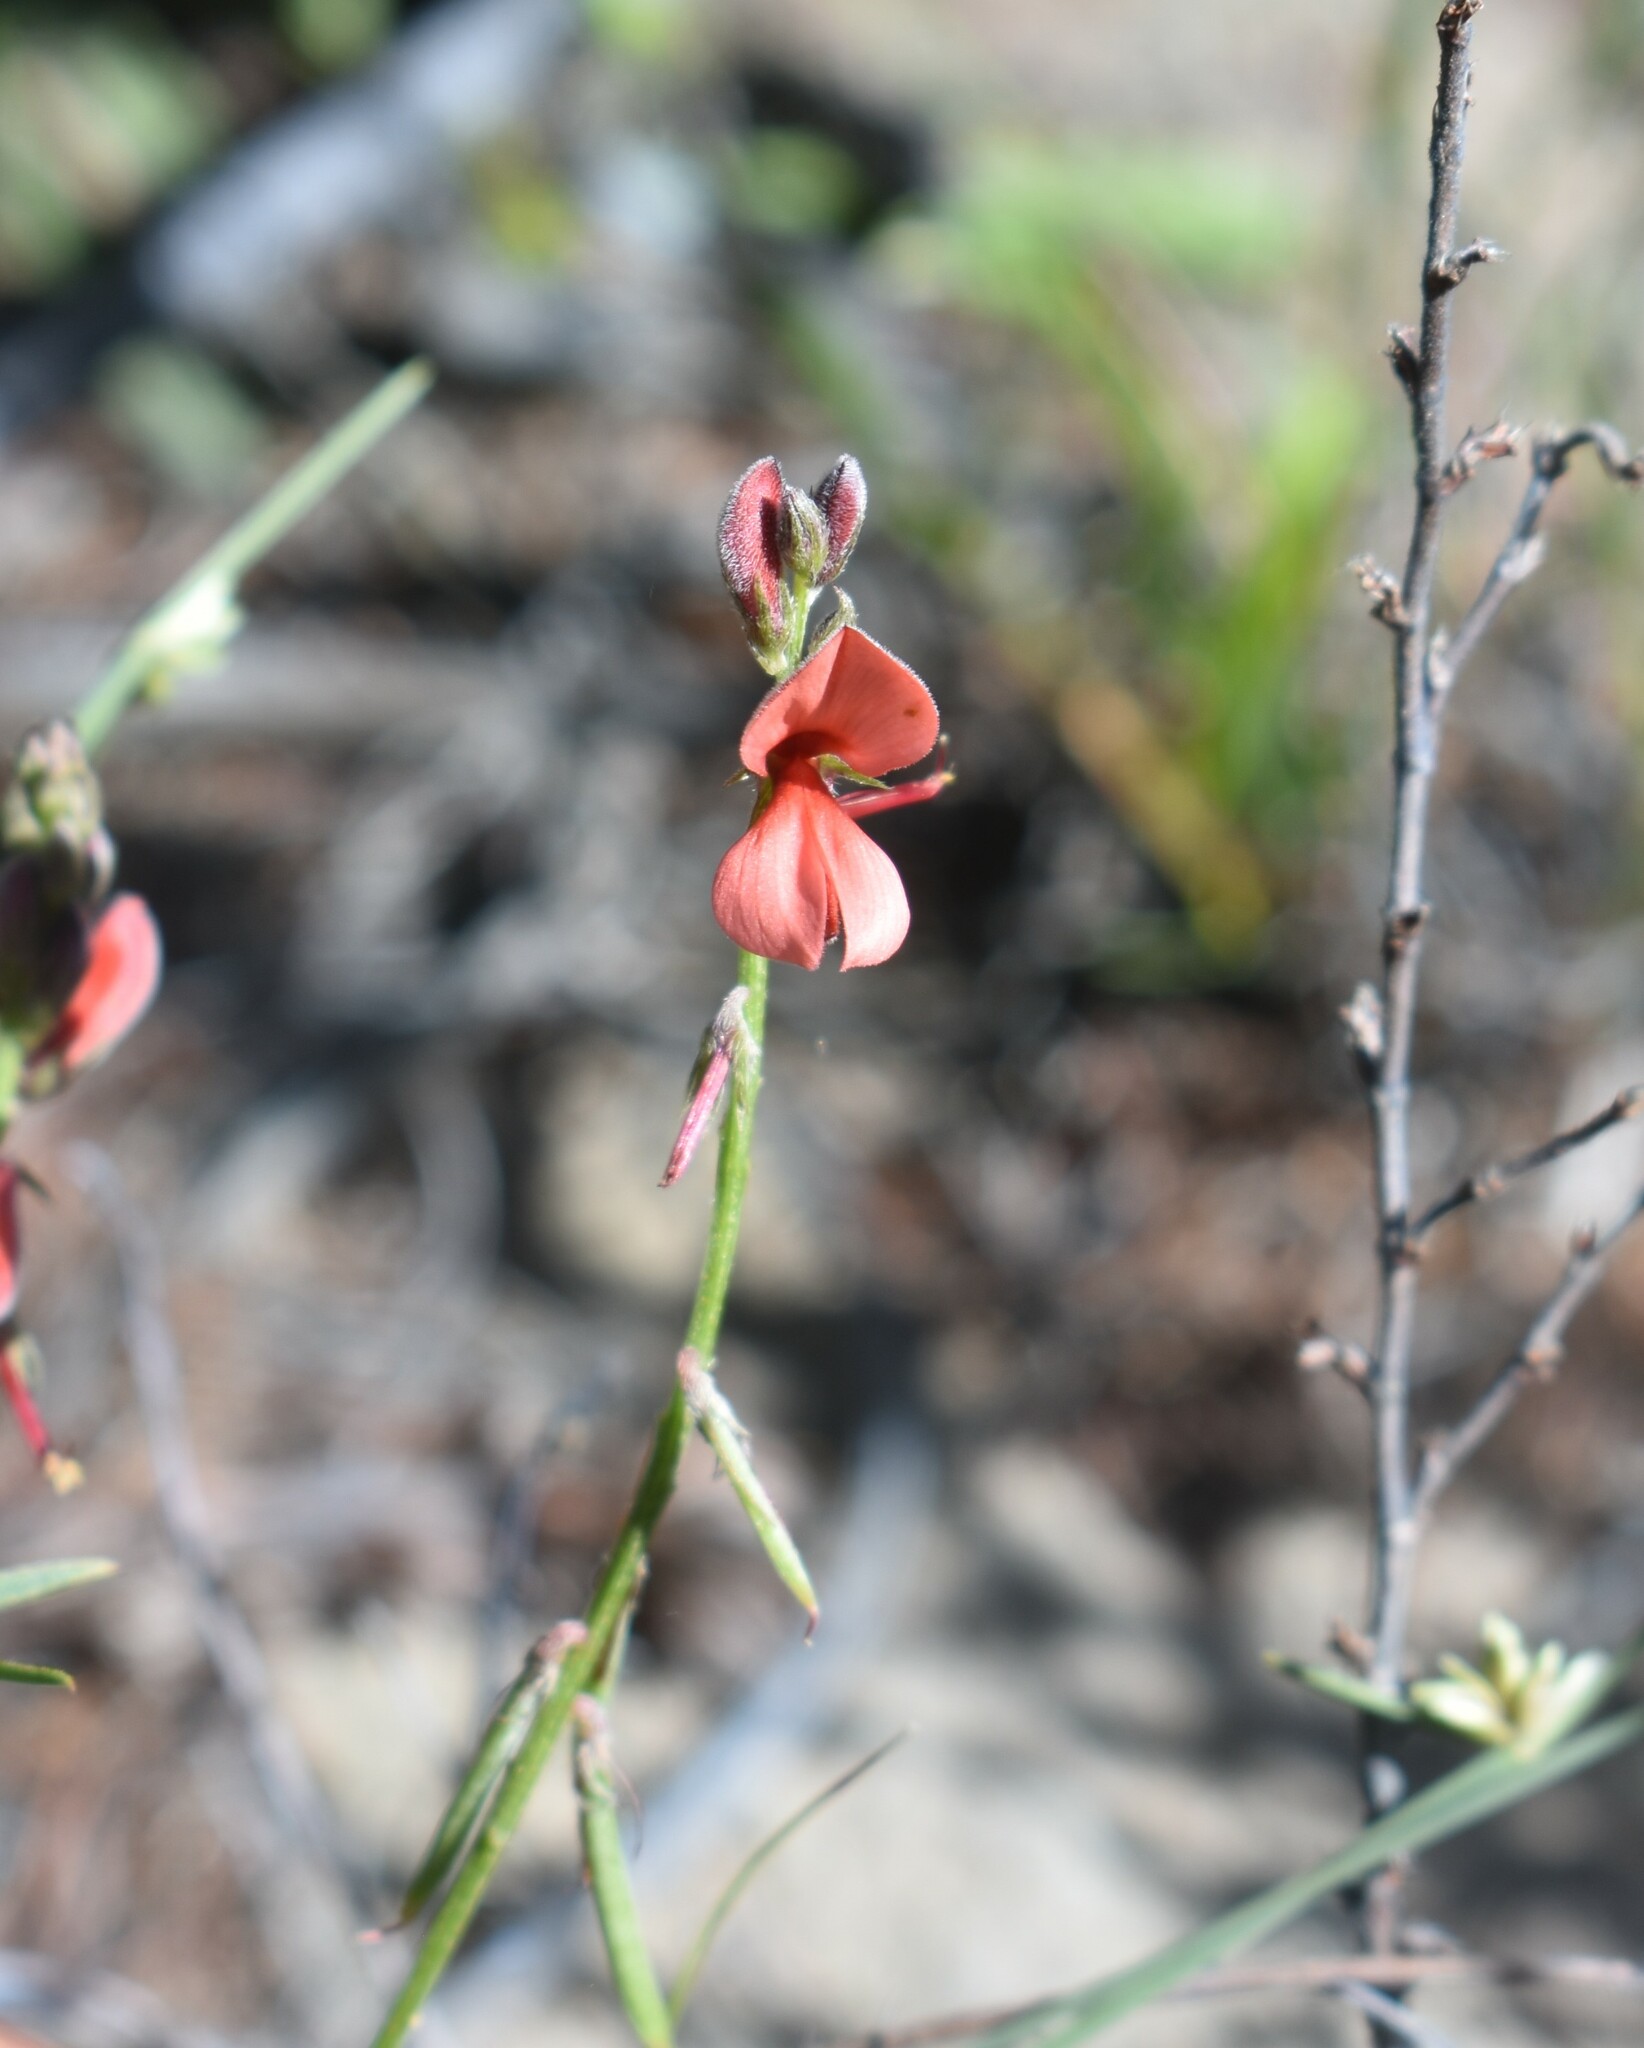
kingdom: Plantae
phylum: Tracheophyta
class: Magnoliopsida
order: Fabales
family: Fabaceae
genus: Indigofera
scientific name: Indigofera heterophylla
